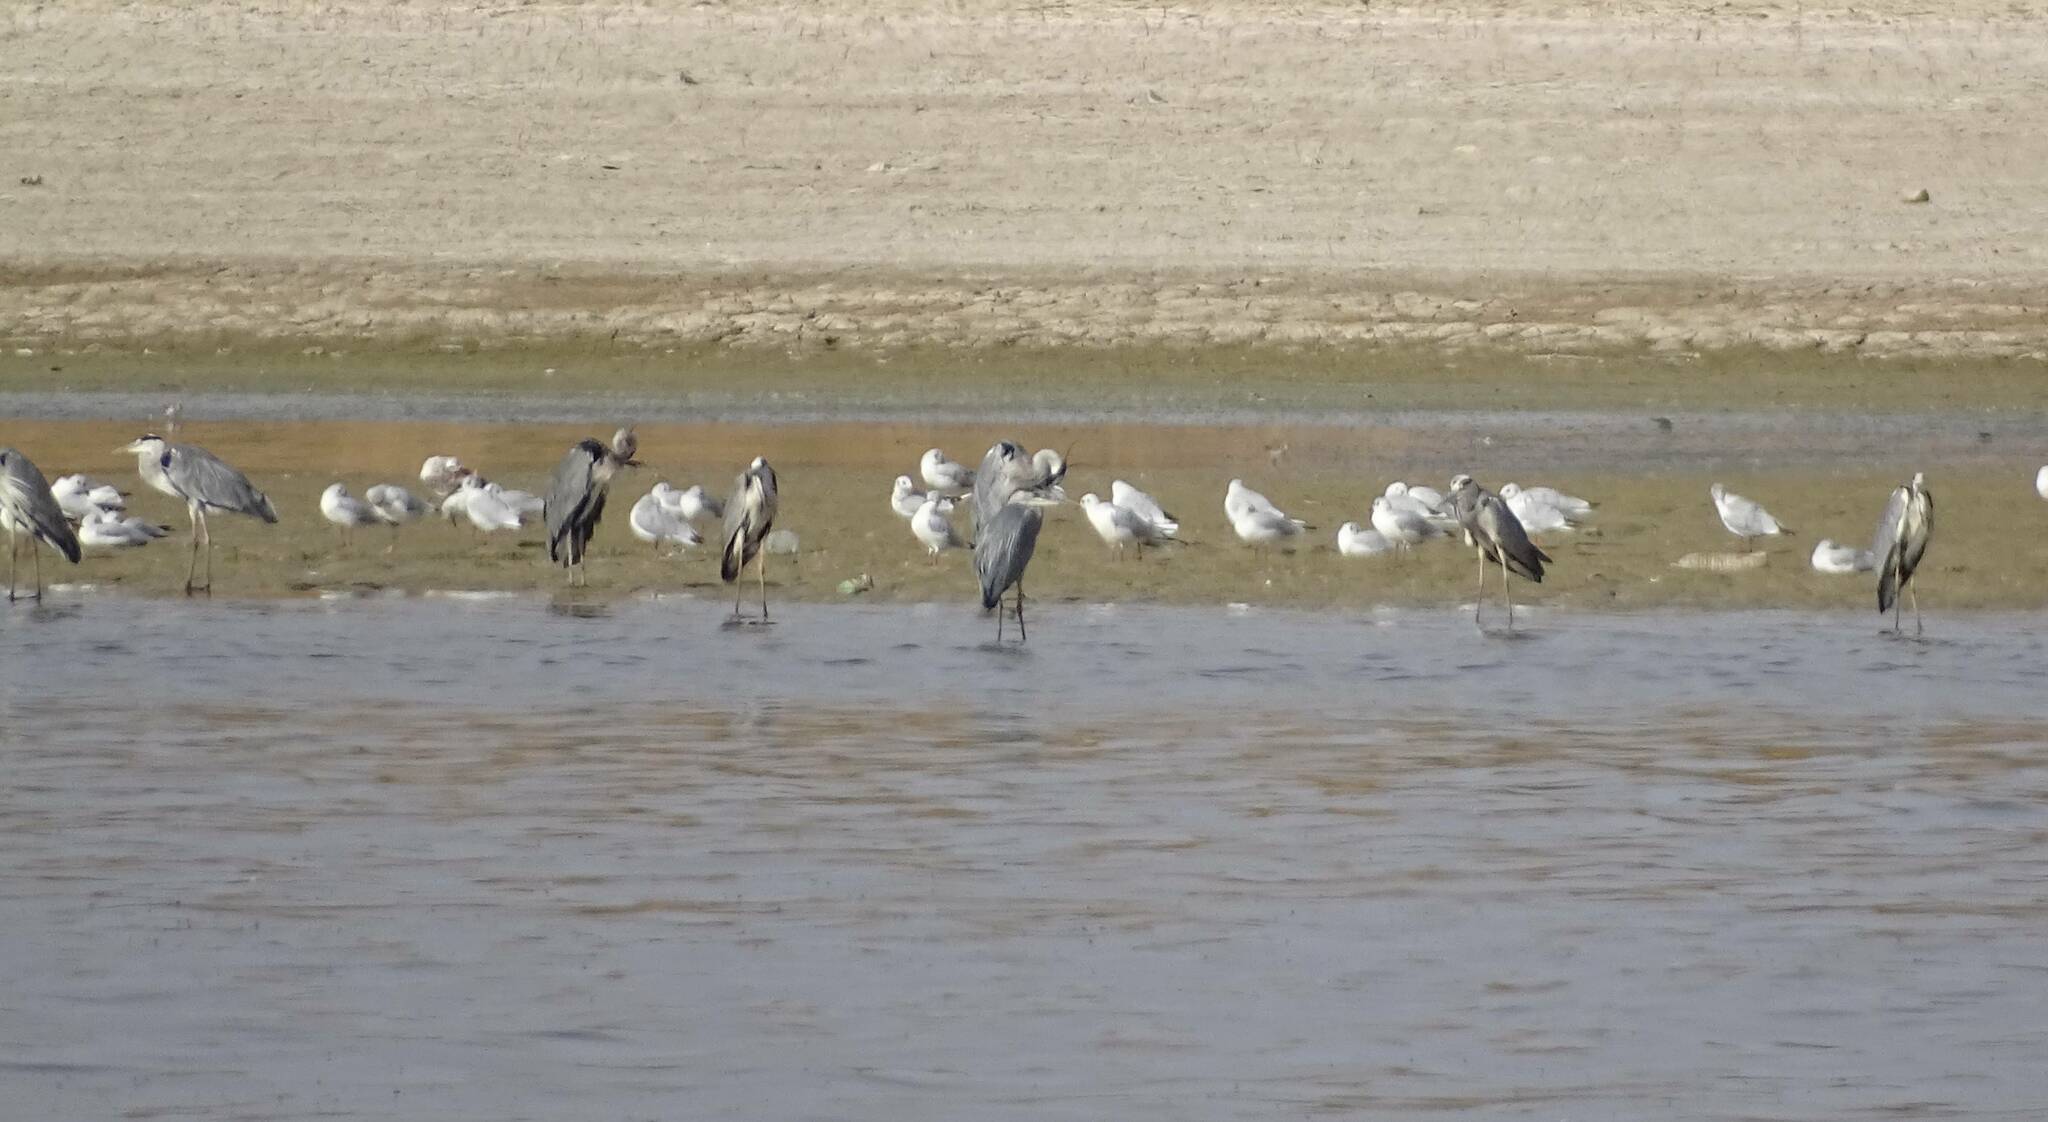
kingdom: Animalia
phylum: Chordata
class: Aves
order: Pelecaniformes
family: Ardeidae
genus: Ardea
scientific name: Ardea cinerea
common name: Grey heron
